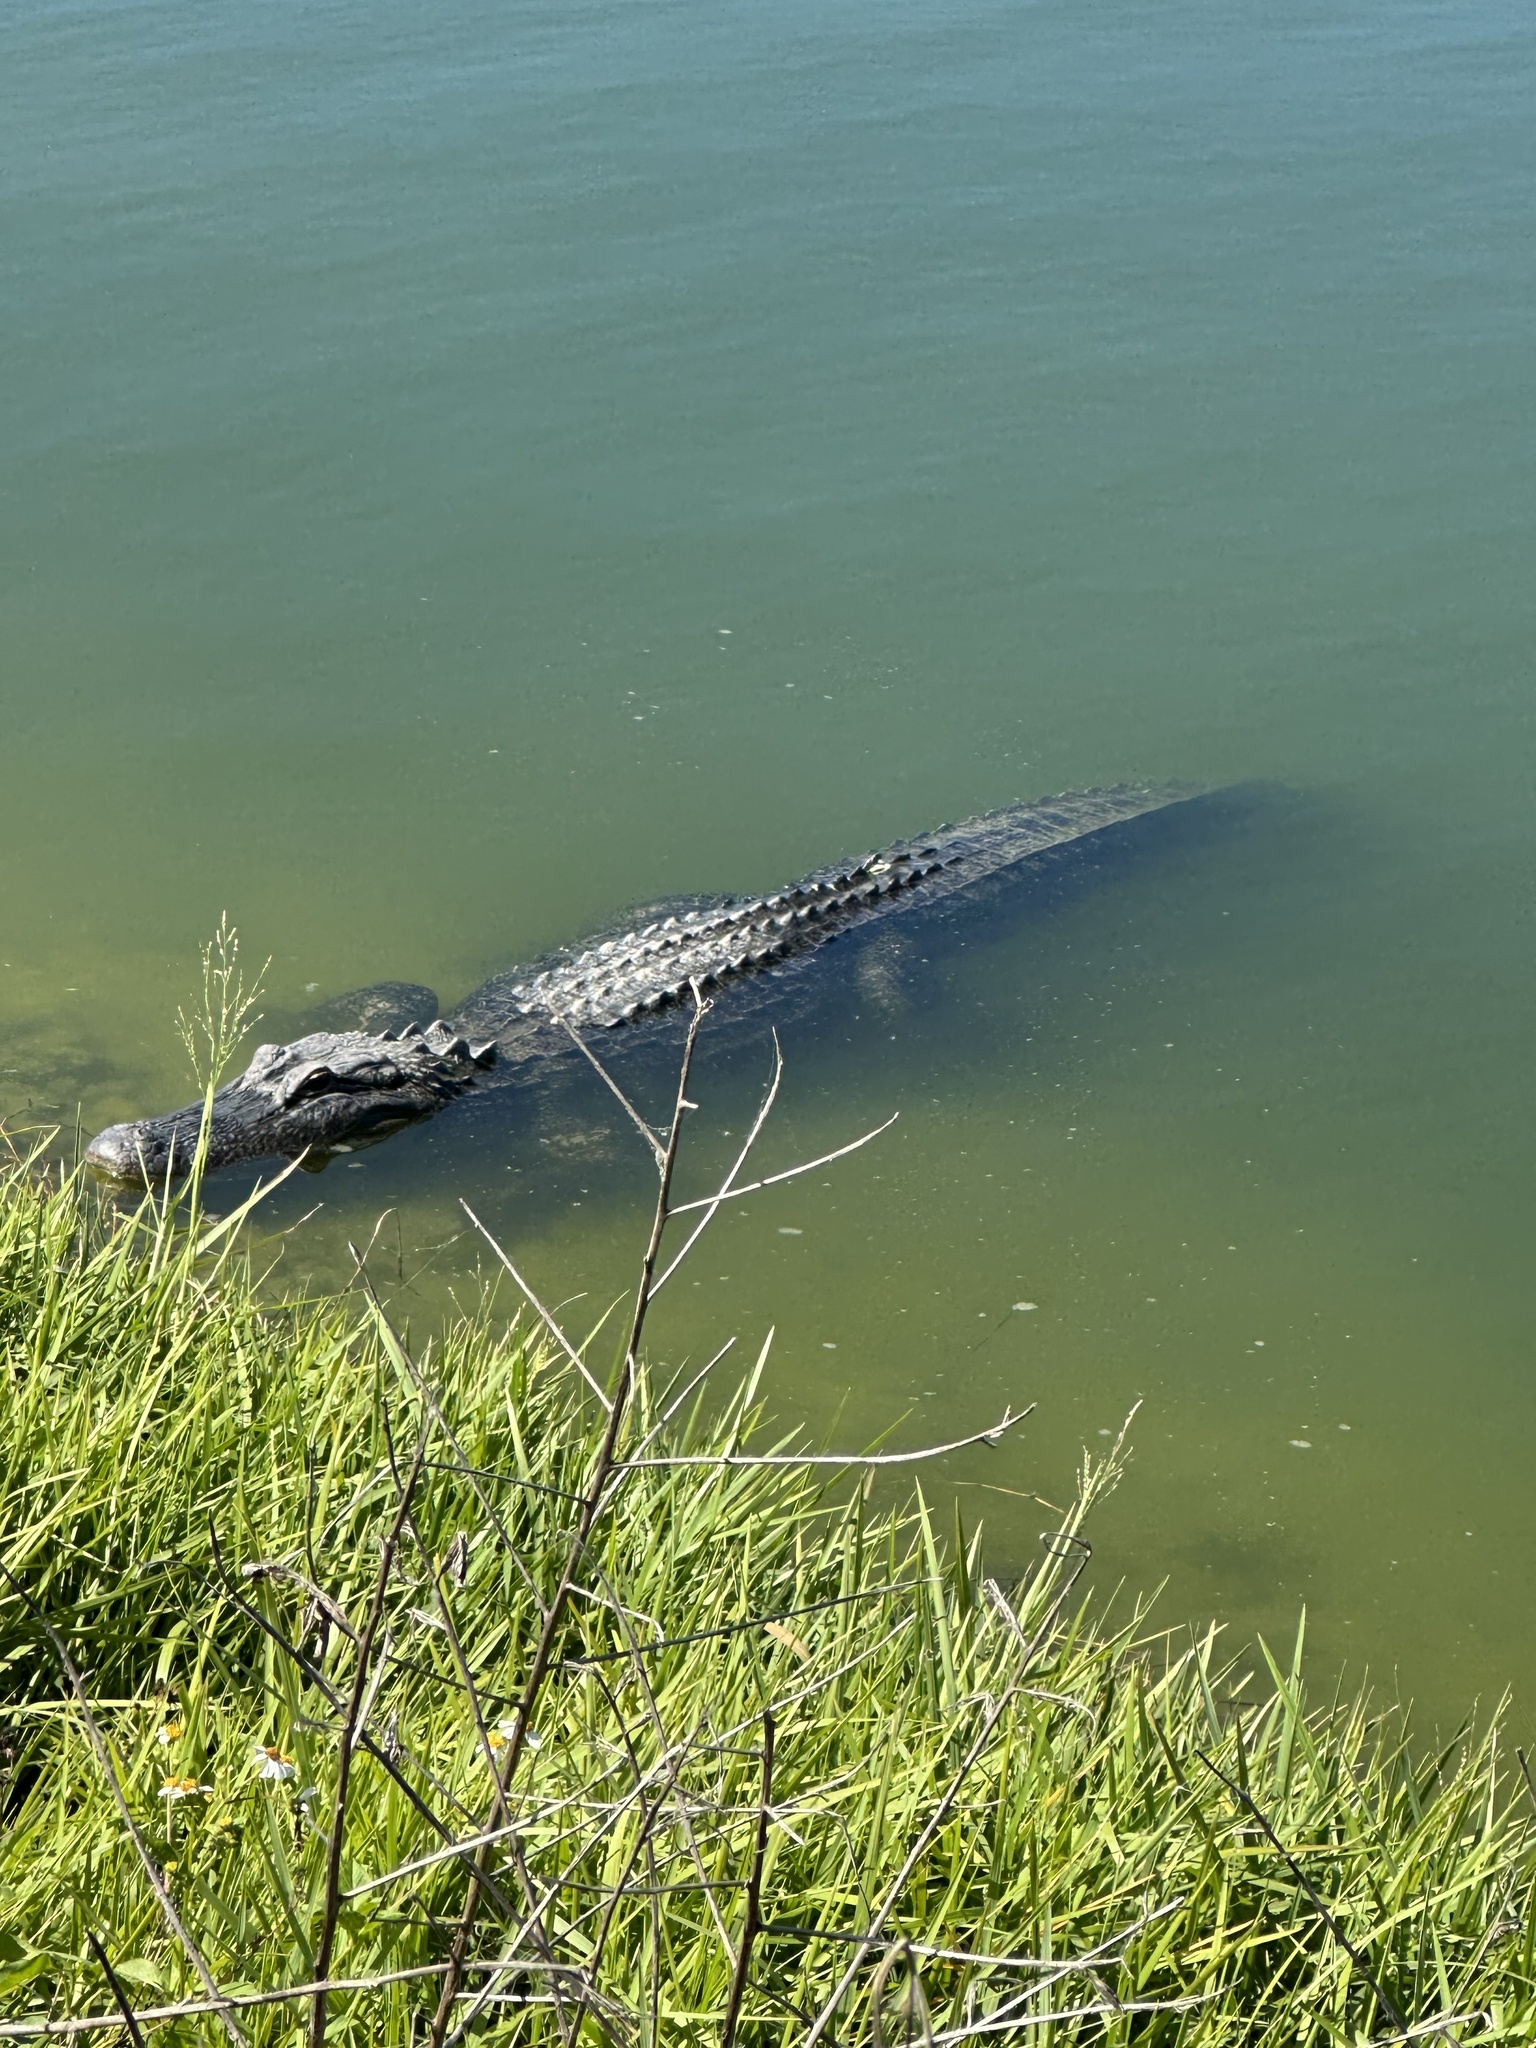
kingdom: Animalia
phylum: Chordata
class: Crocodylia
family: Alligatoridae
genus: Alligator
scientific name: Alligator mississippiensis
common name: American alligator
